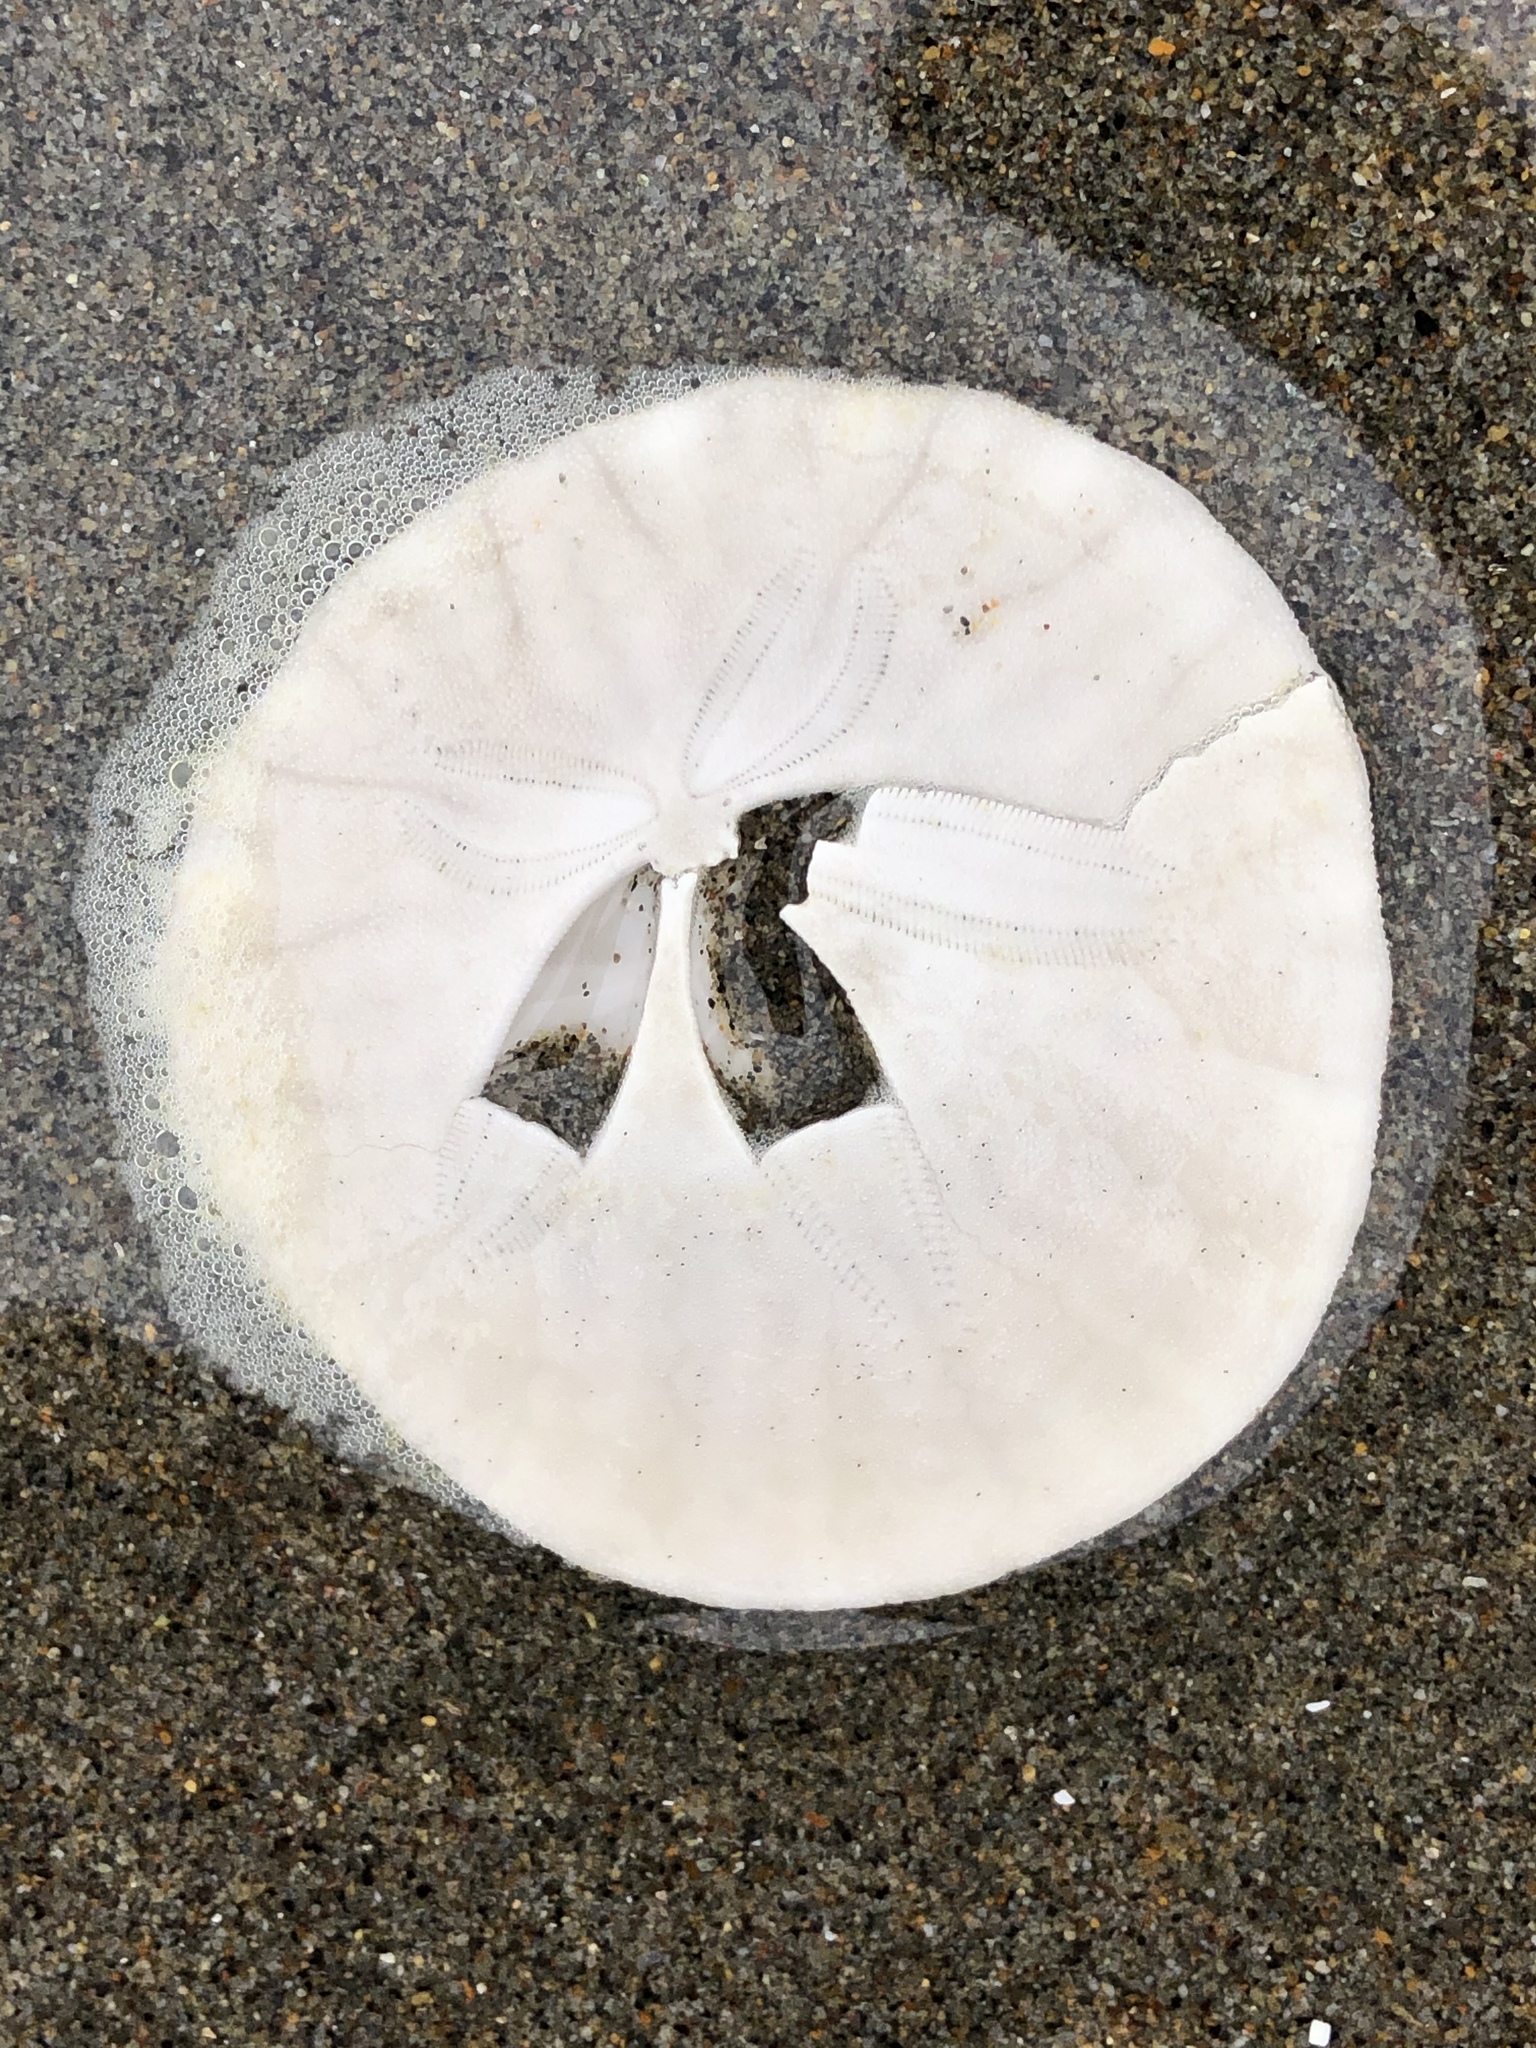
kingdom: Animalia
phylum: Echinodermata
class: Echinoidea
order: Echinolampadacea
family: Dendrasteridae
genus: Dendraster
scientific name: Dendraster excentricus
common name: Eccentric sand dollar sea urchin
